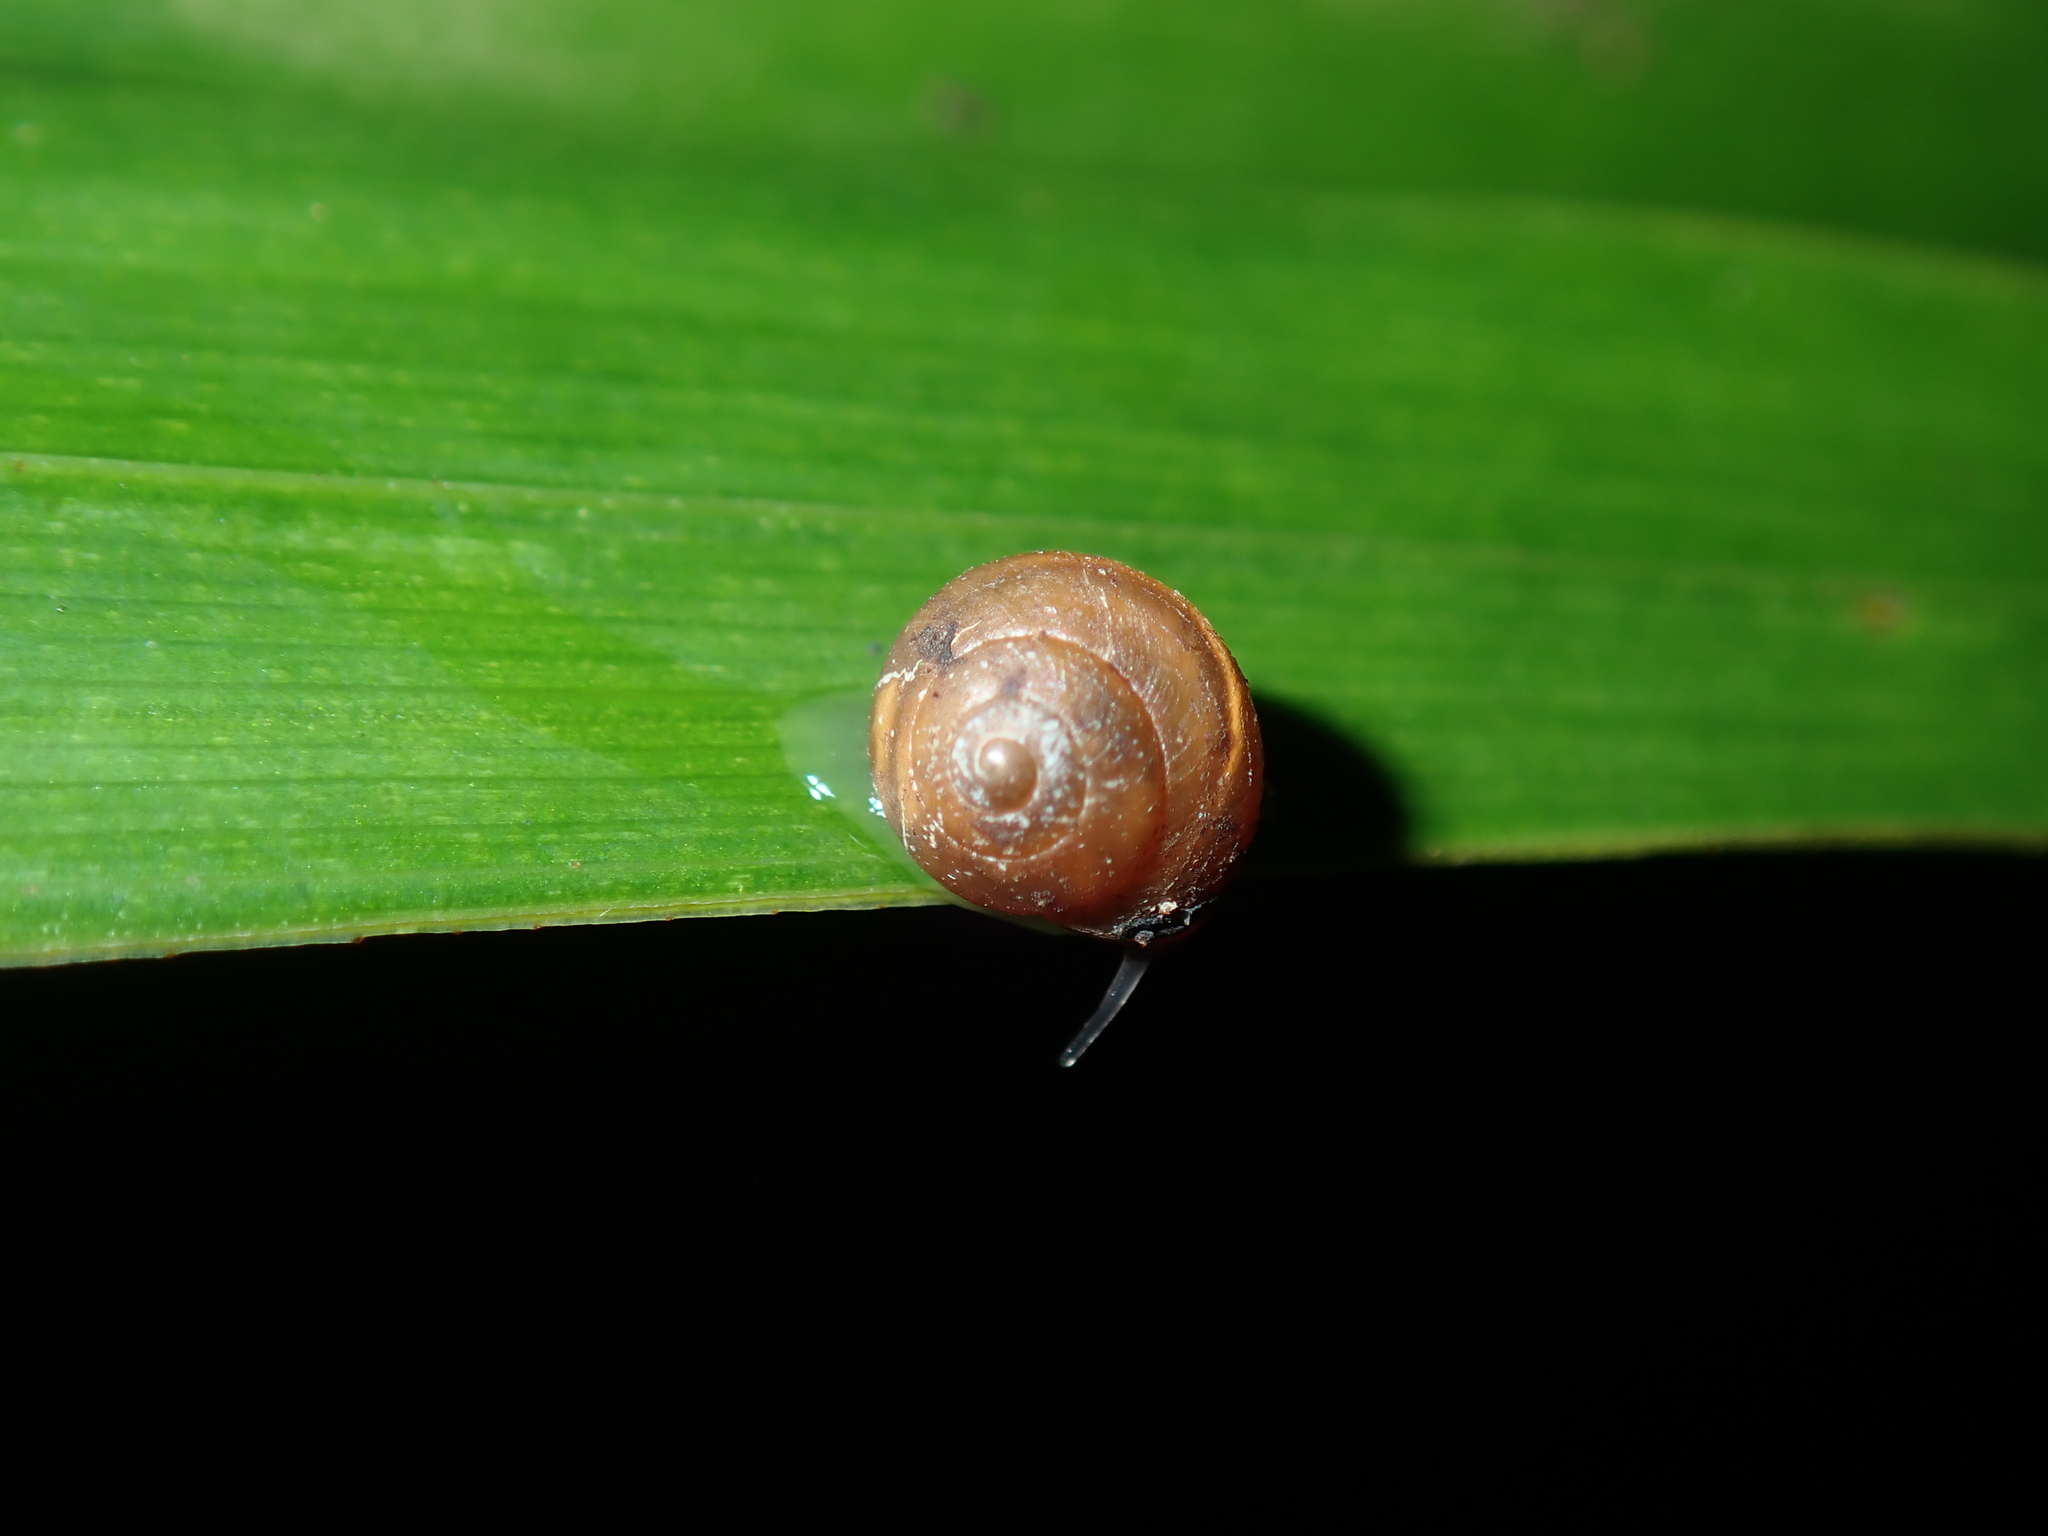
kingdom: Animalia
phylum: Mollusca
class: Gastropoda
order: Cycloneritida
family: Helicinidae
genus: Pleuropoma
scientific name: Pleuropoma jana
